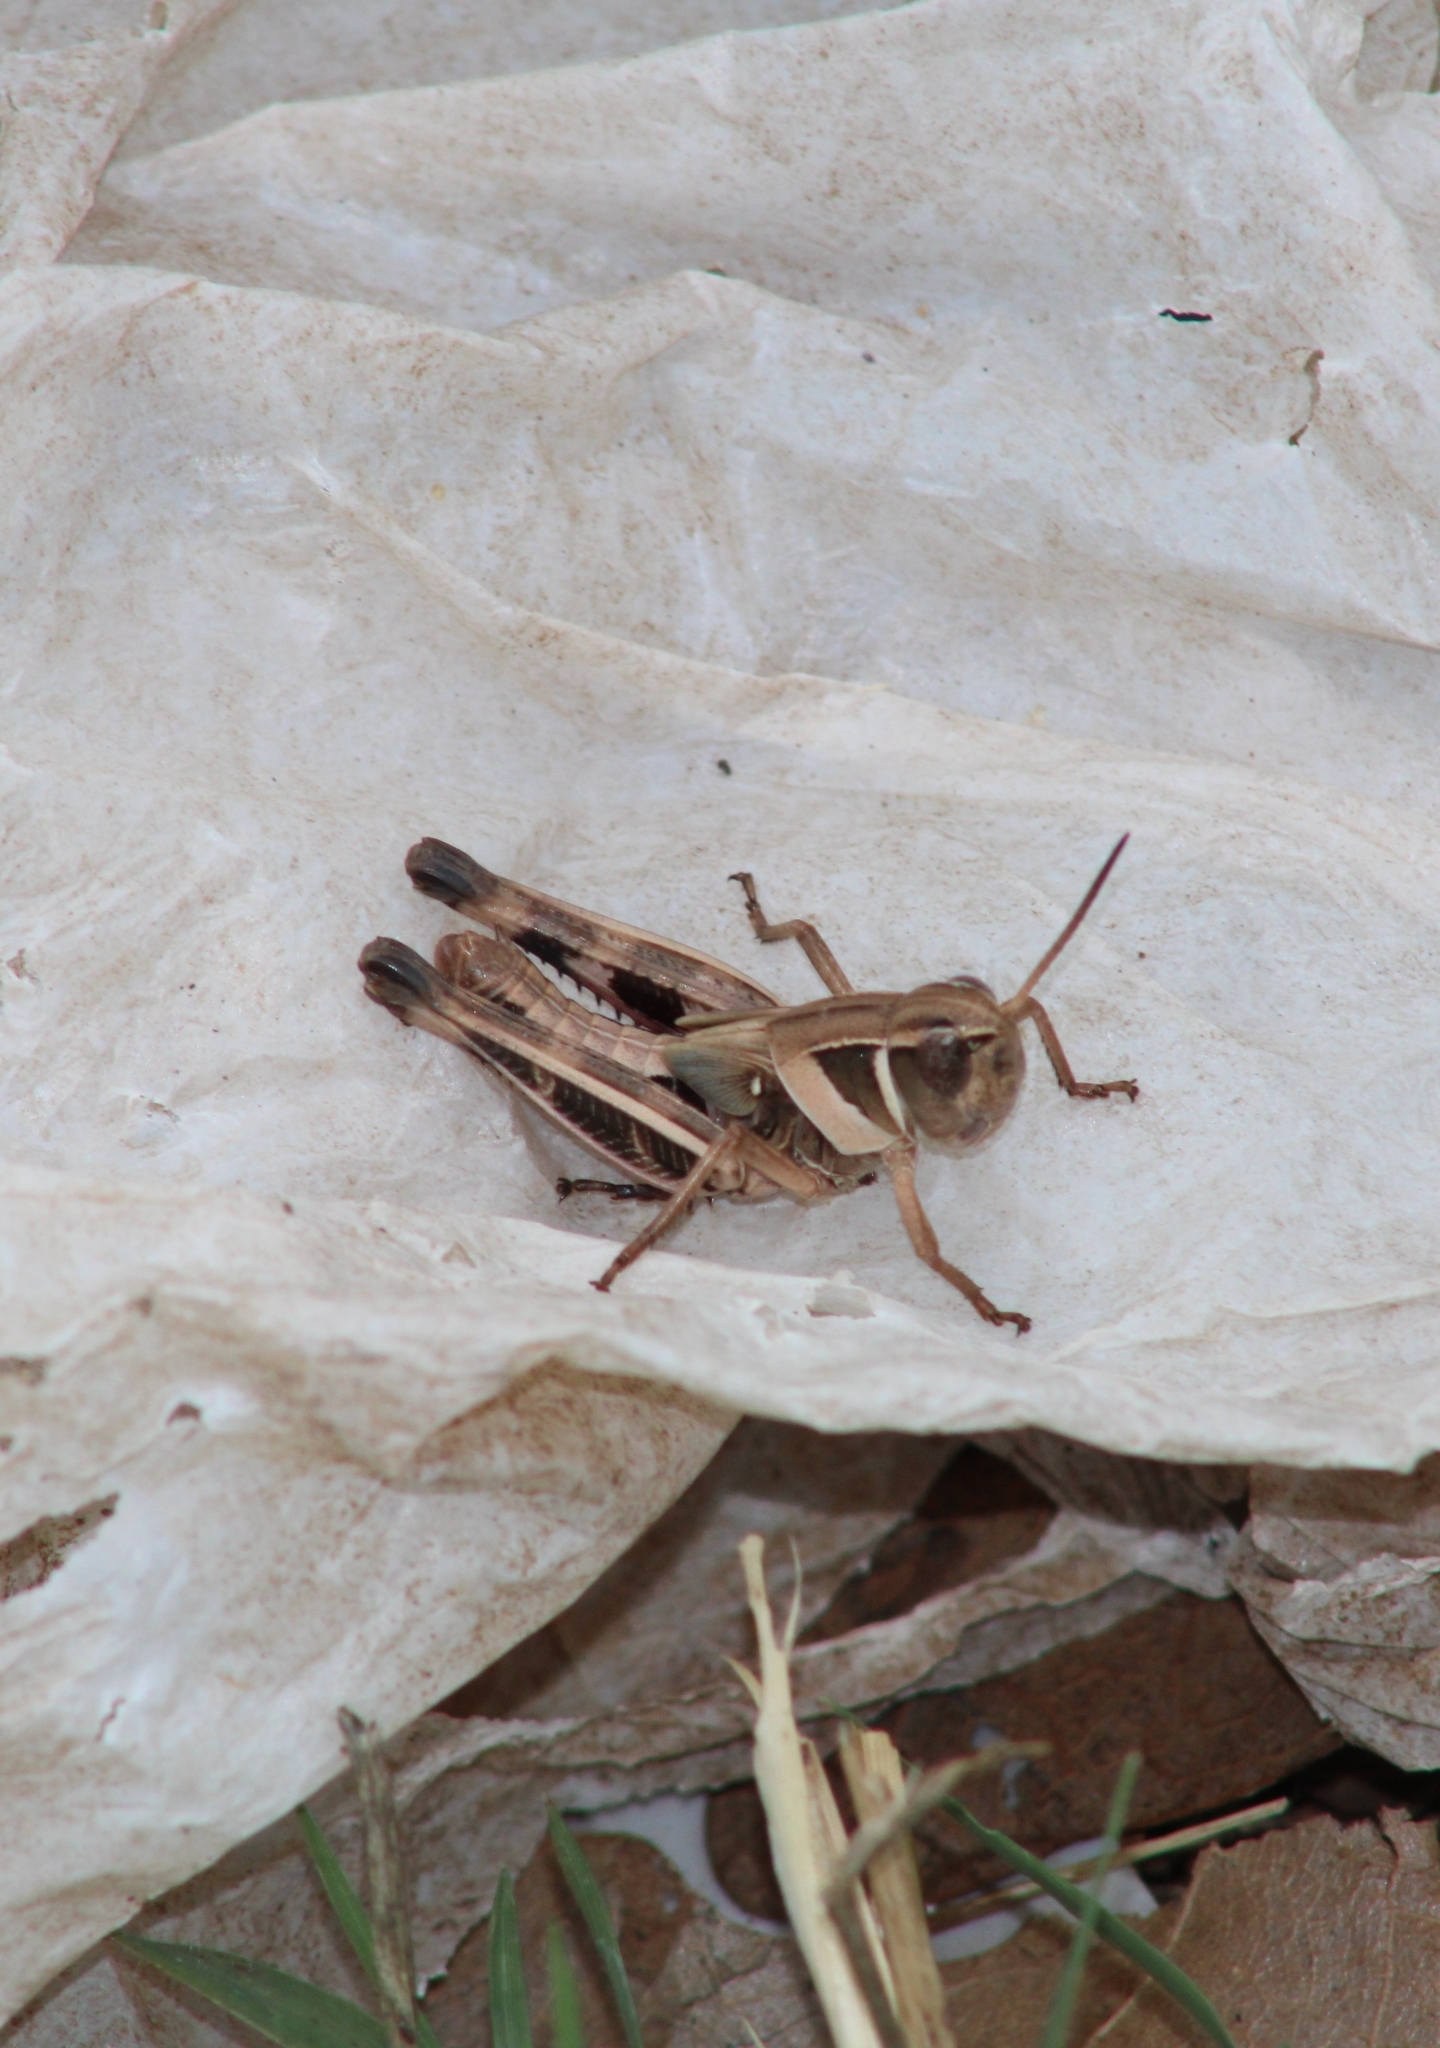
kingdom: Animalia
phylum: Arthropoda
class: Insecta
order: Orthoptera
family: Acrididae
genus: Boopedon
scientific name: Boopedon gracile
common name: Graceful range grasshopper
